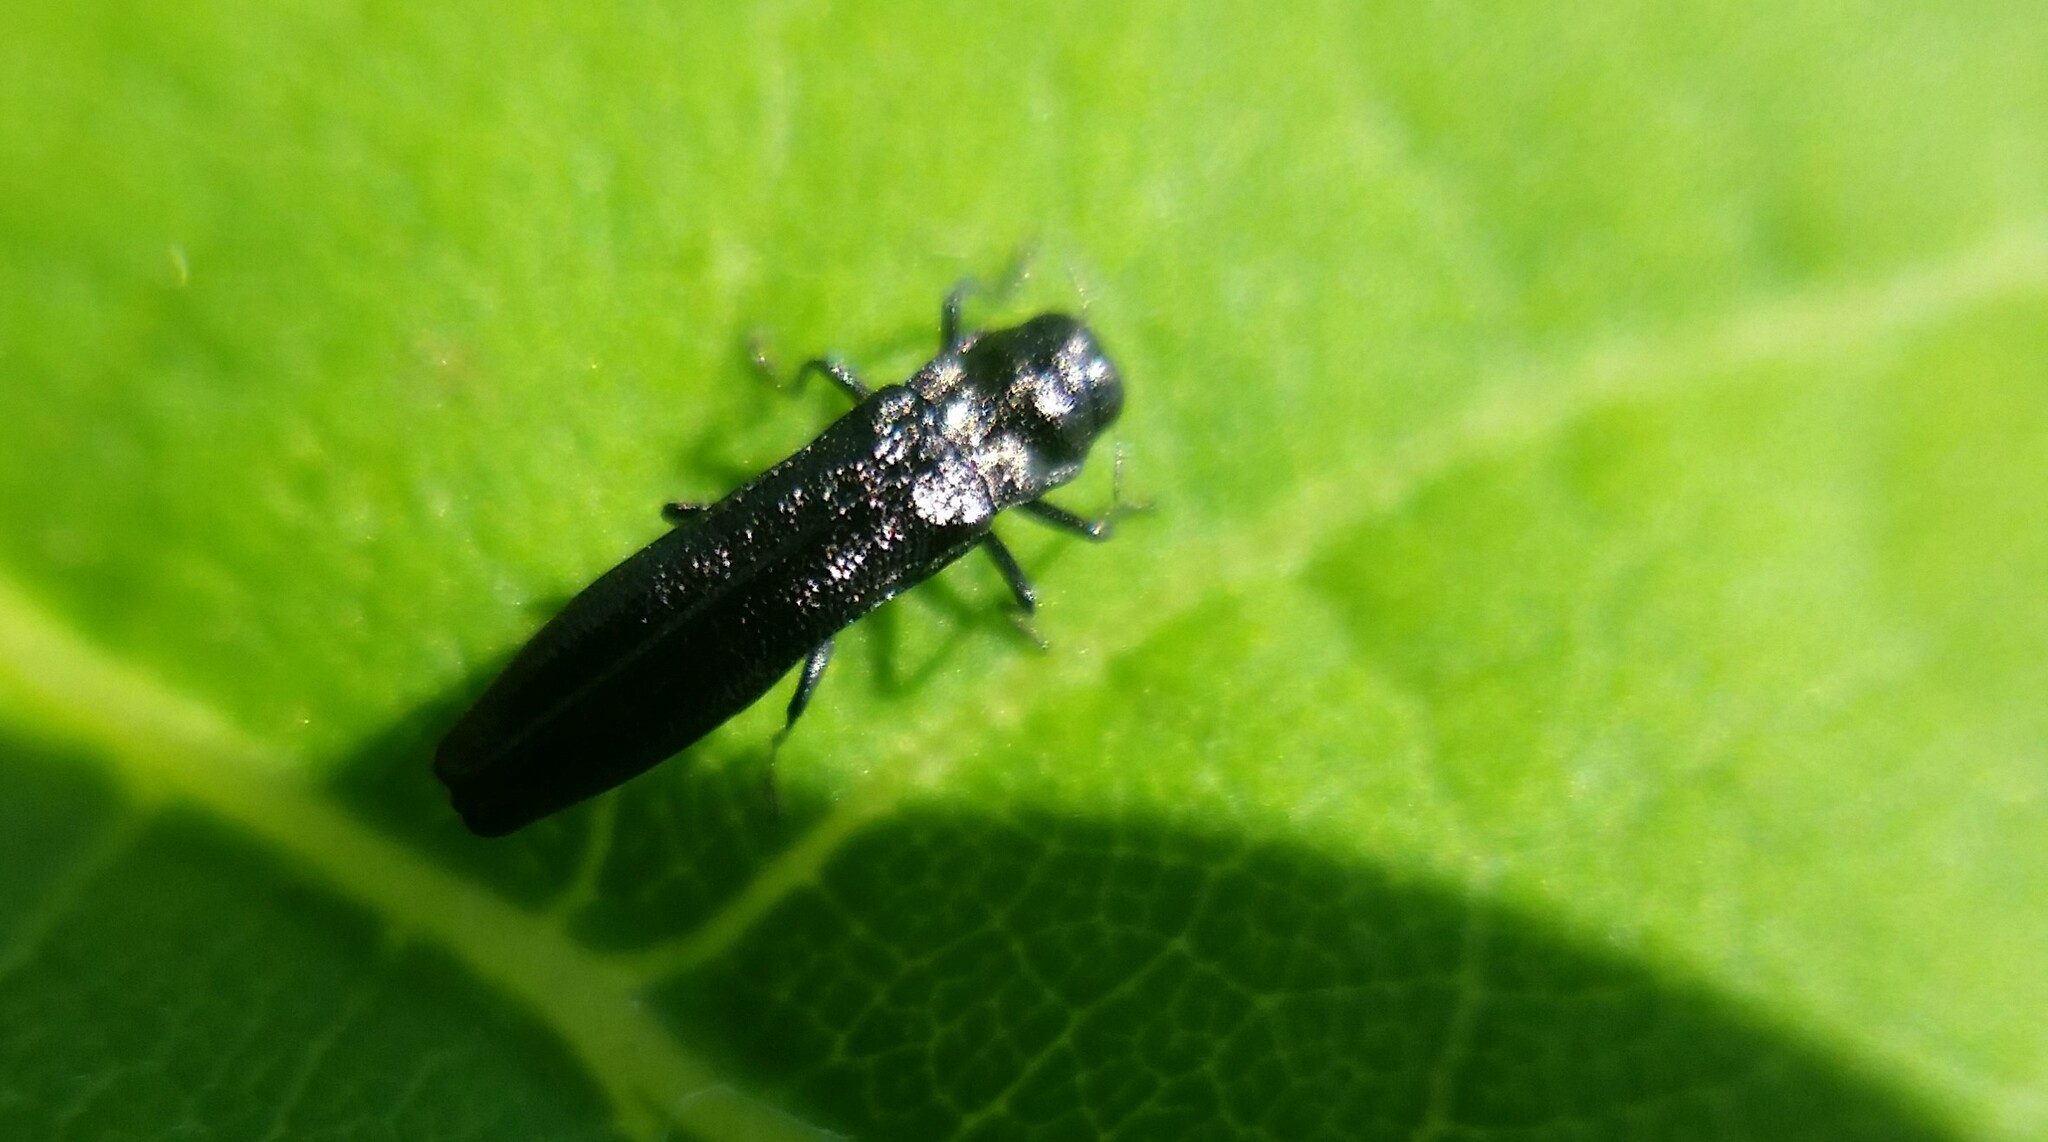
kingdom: Animalia
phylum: Arthropoda
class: Insecta
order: Coleoptera
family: Buprestidae
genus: Paragrilus
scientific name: Paragrilus tenuis
